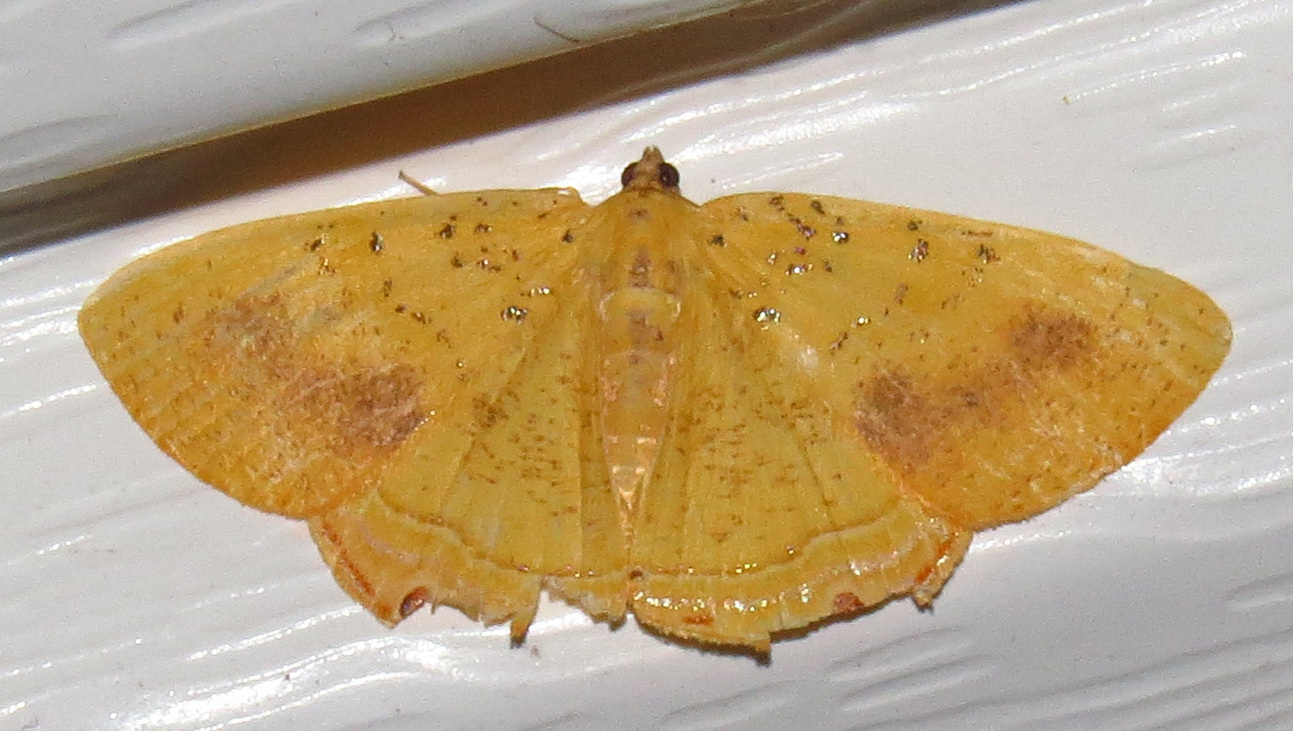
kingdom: Animalia
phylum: Arthropoda
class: Insecta
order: Lepidoptera
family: Geometridae
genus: Phrygionis
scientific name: Phrygionis auriferaria
